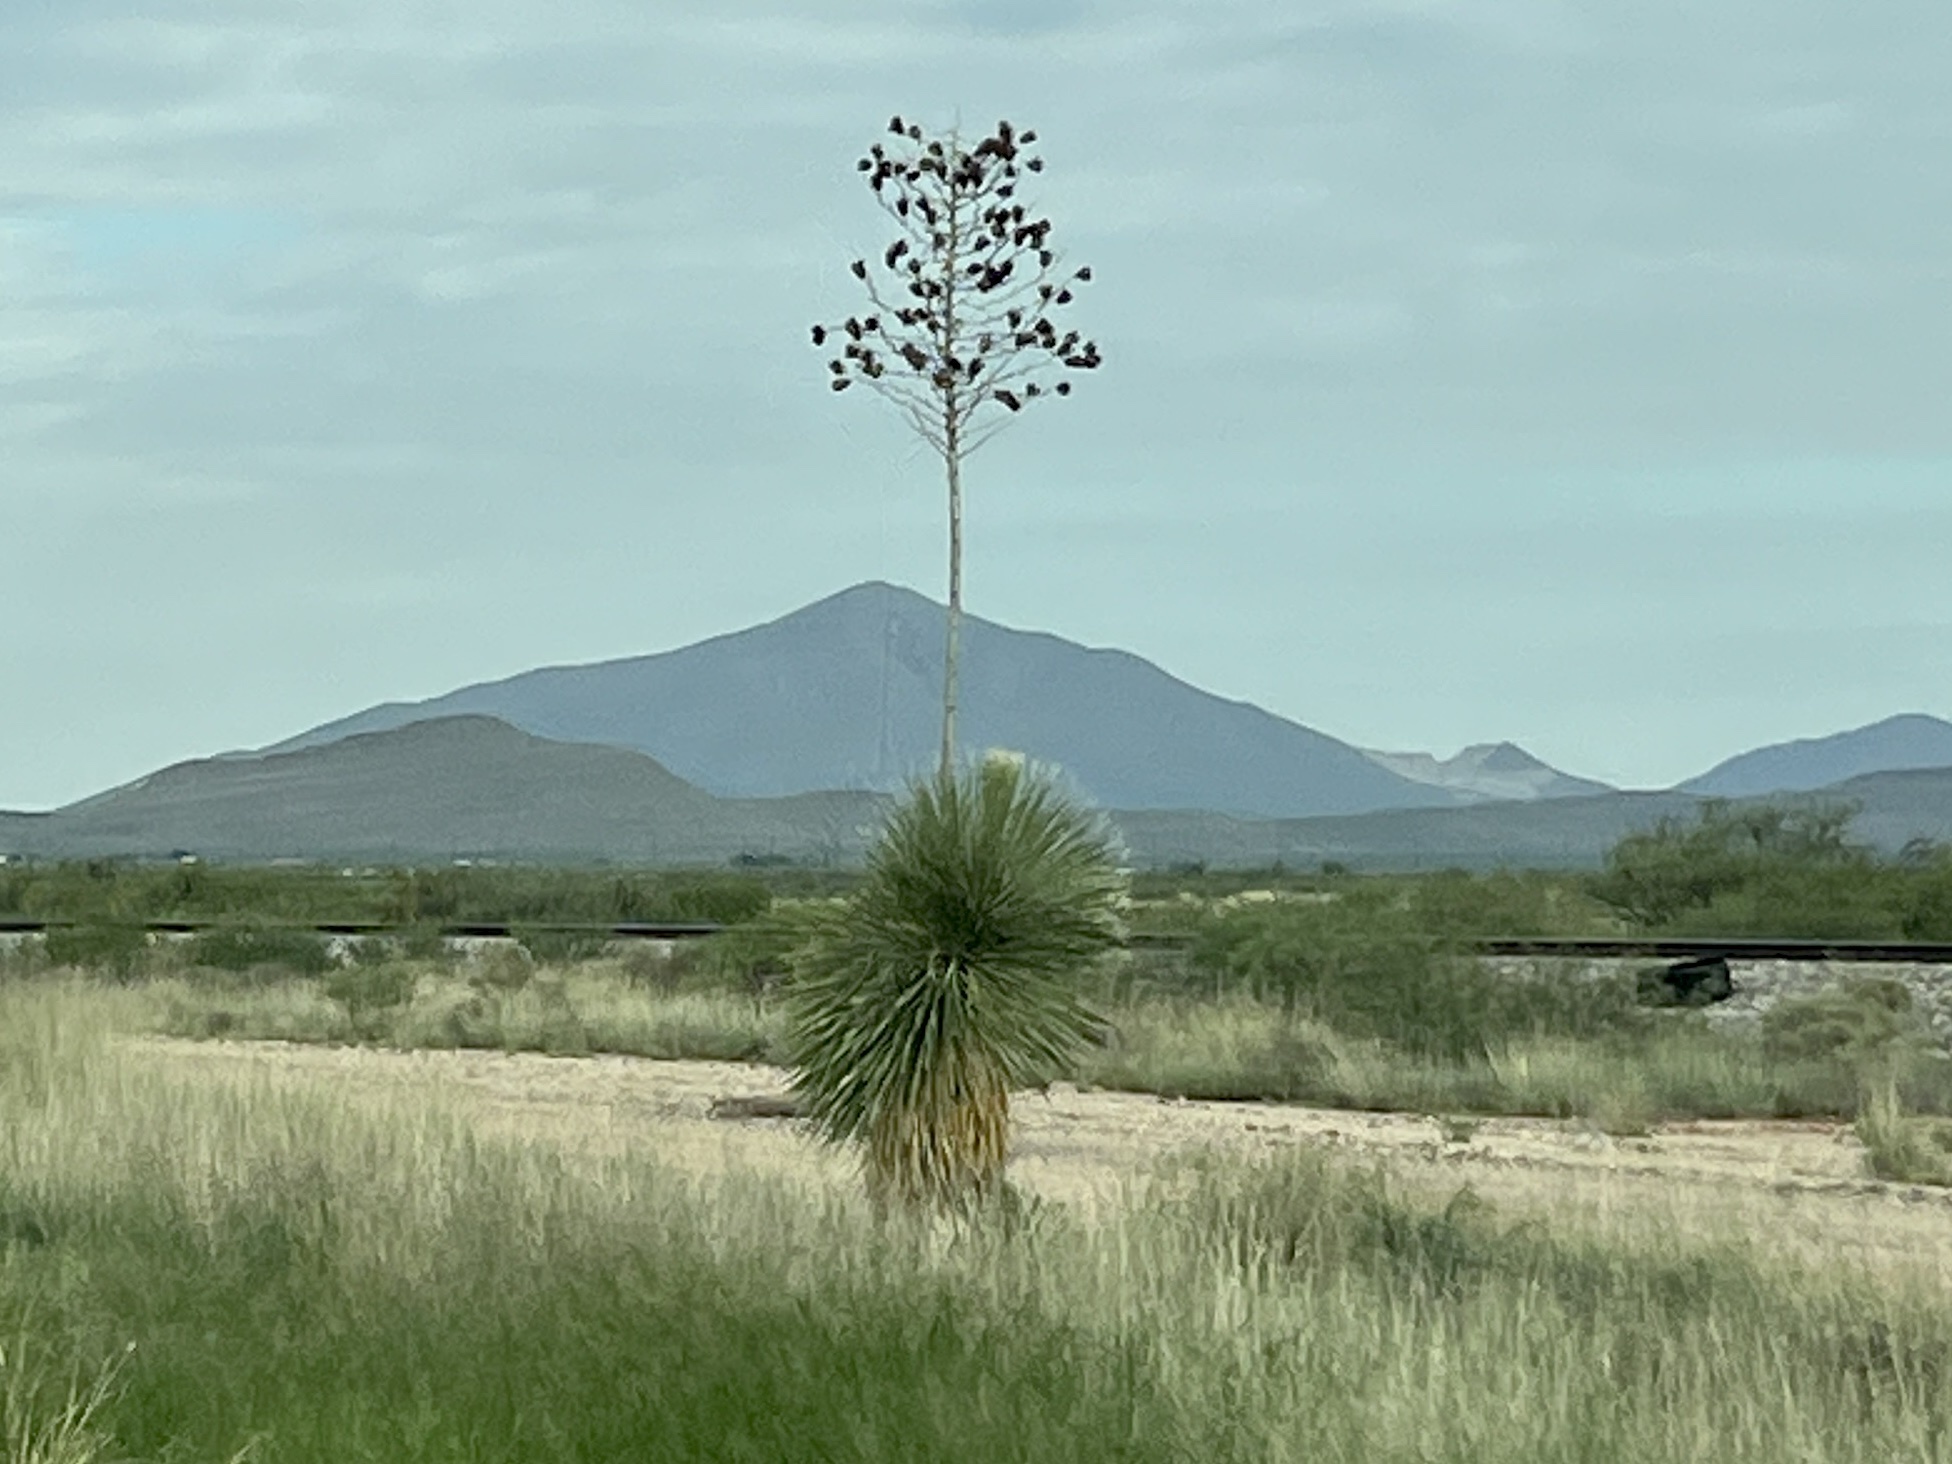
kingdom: Plantae
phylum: Tracheophyta
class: Liliopsida
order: Asparagales
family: Asparagaceae
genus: Yucca
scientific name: Yucca elata
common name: Palmella
